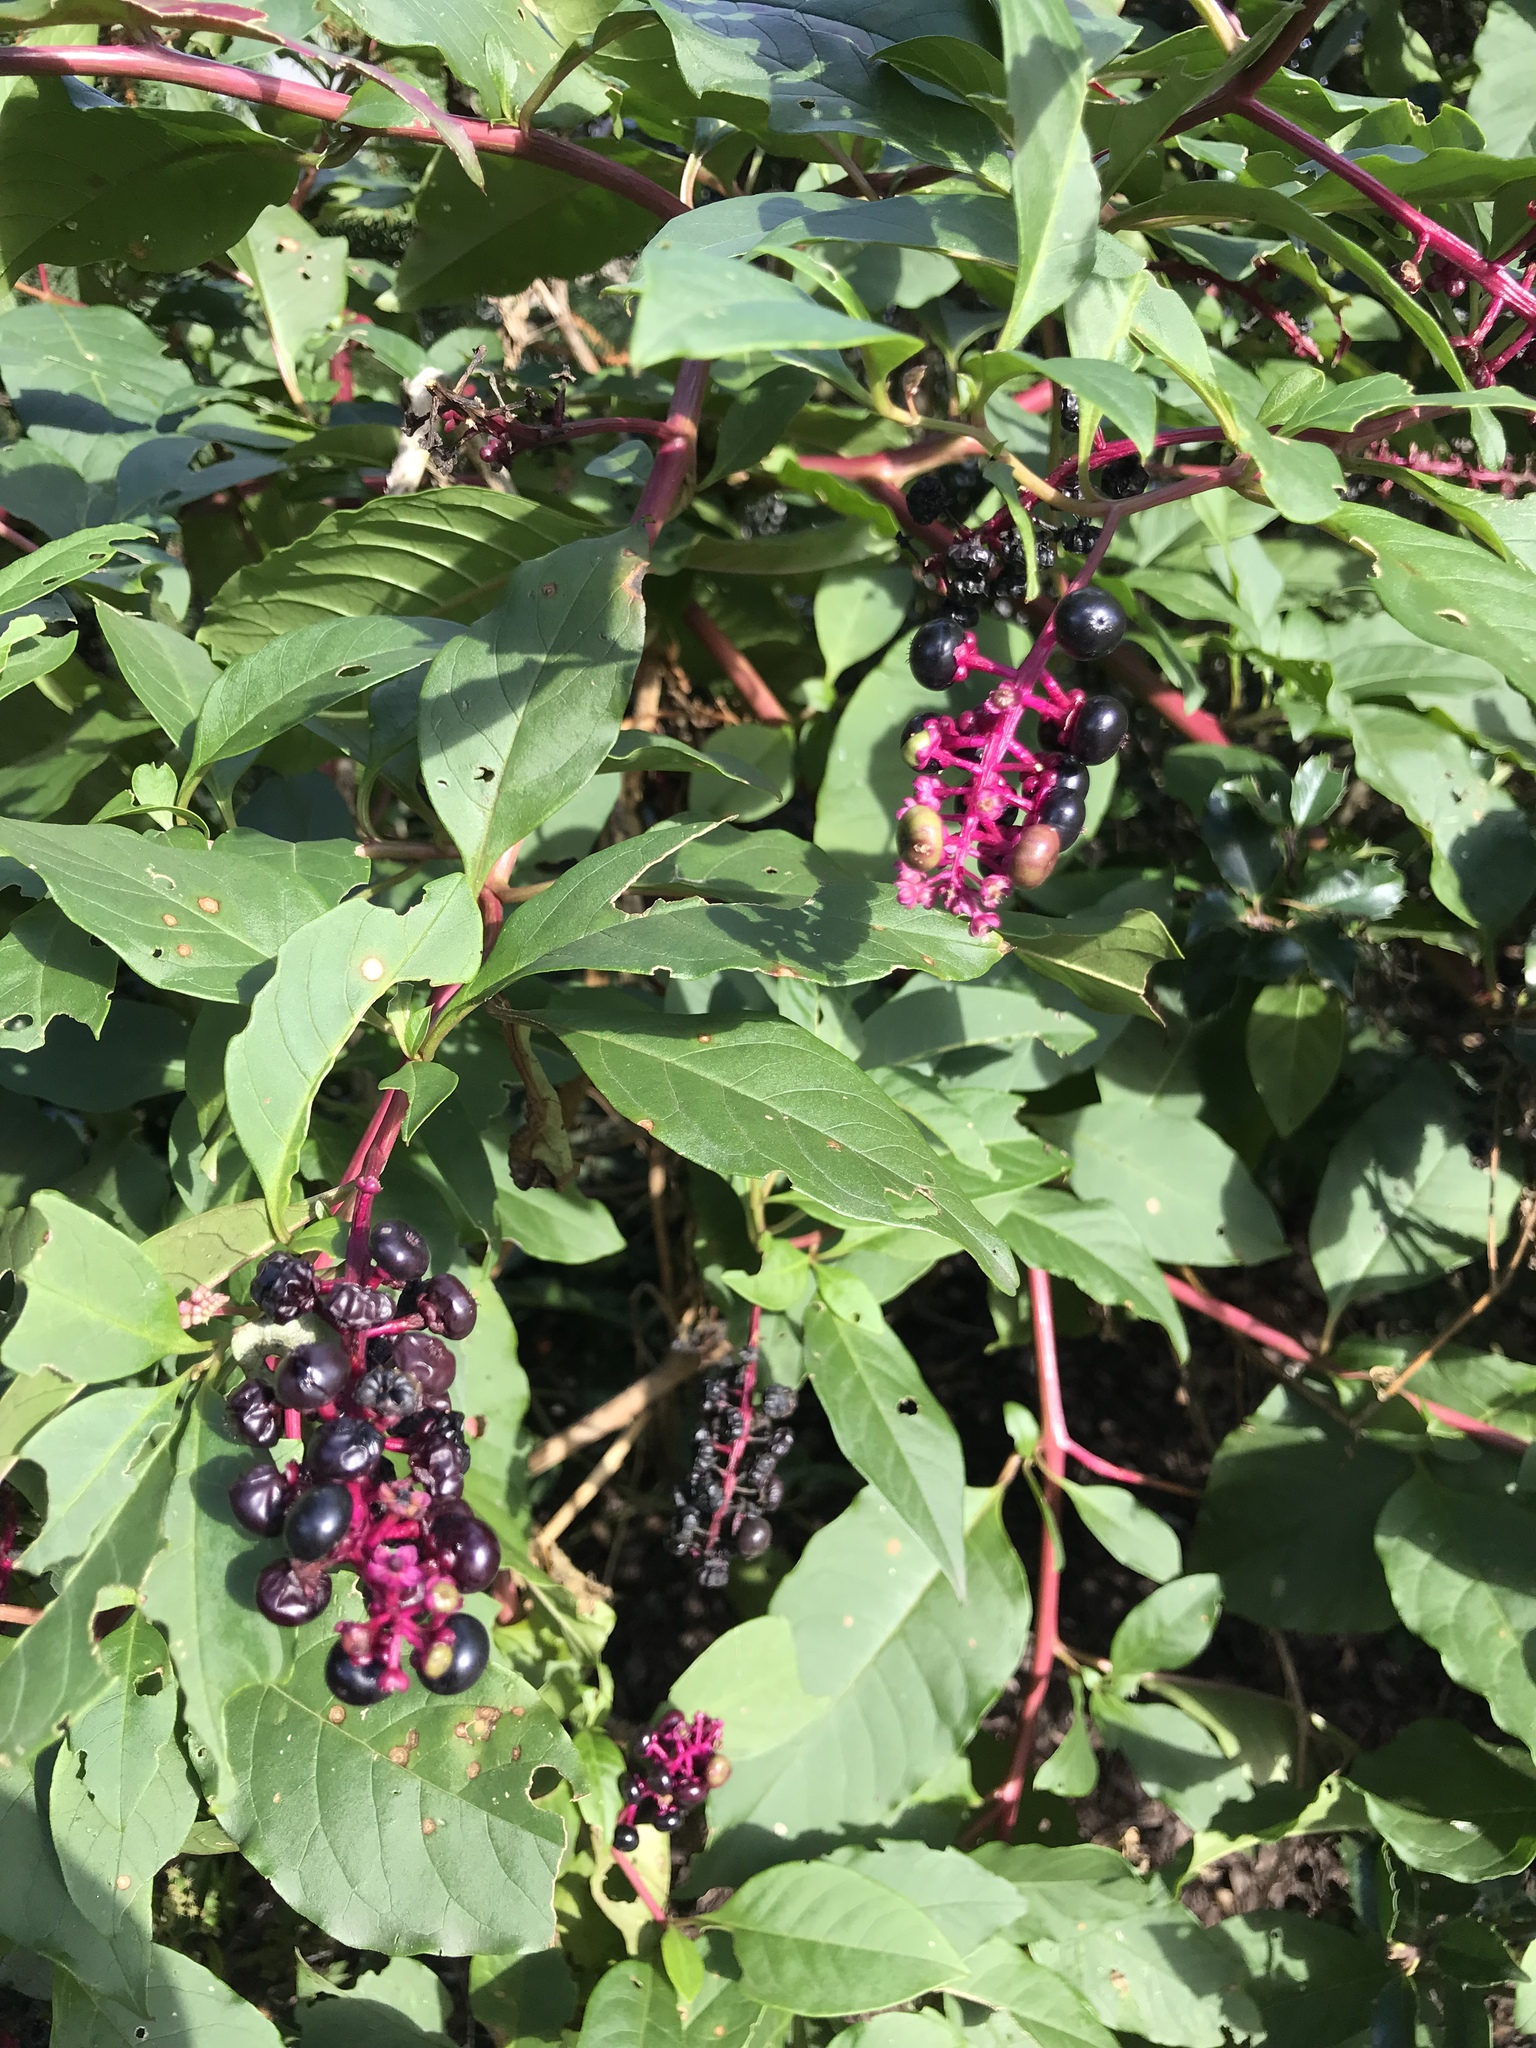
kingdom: Plantae
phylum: Tracheophyta
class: Magnoliopsida
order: Caryophyllales
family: Phytolaccaceae
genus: Phytolacca
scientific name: Phytolacca americana
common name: American pokeweed
